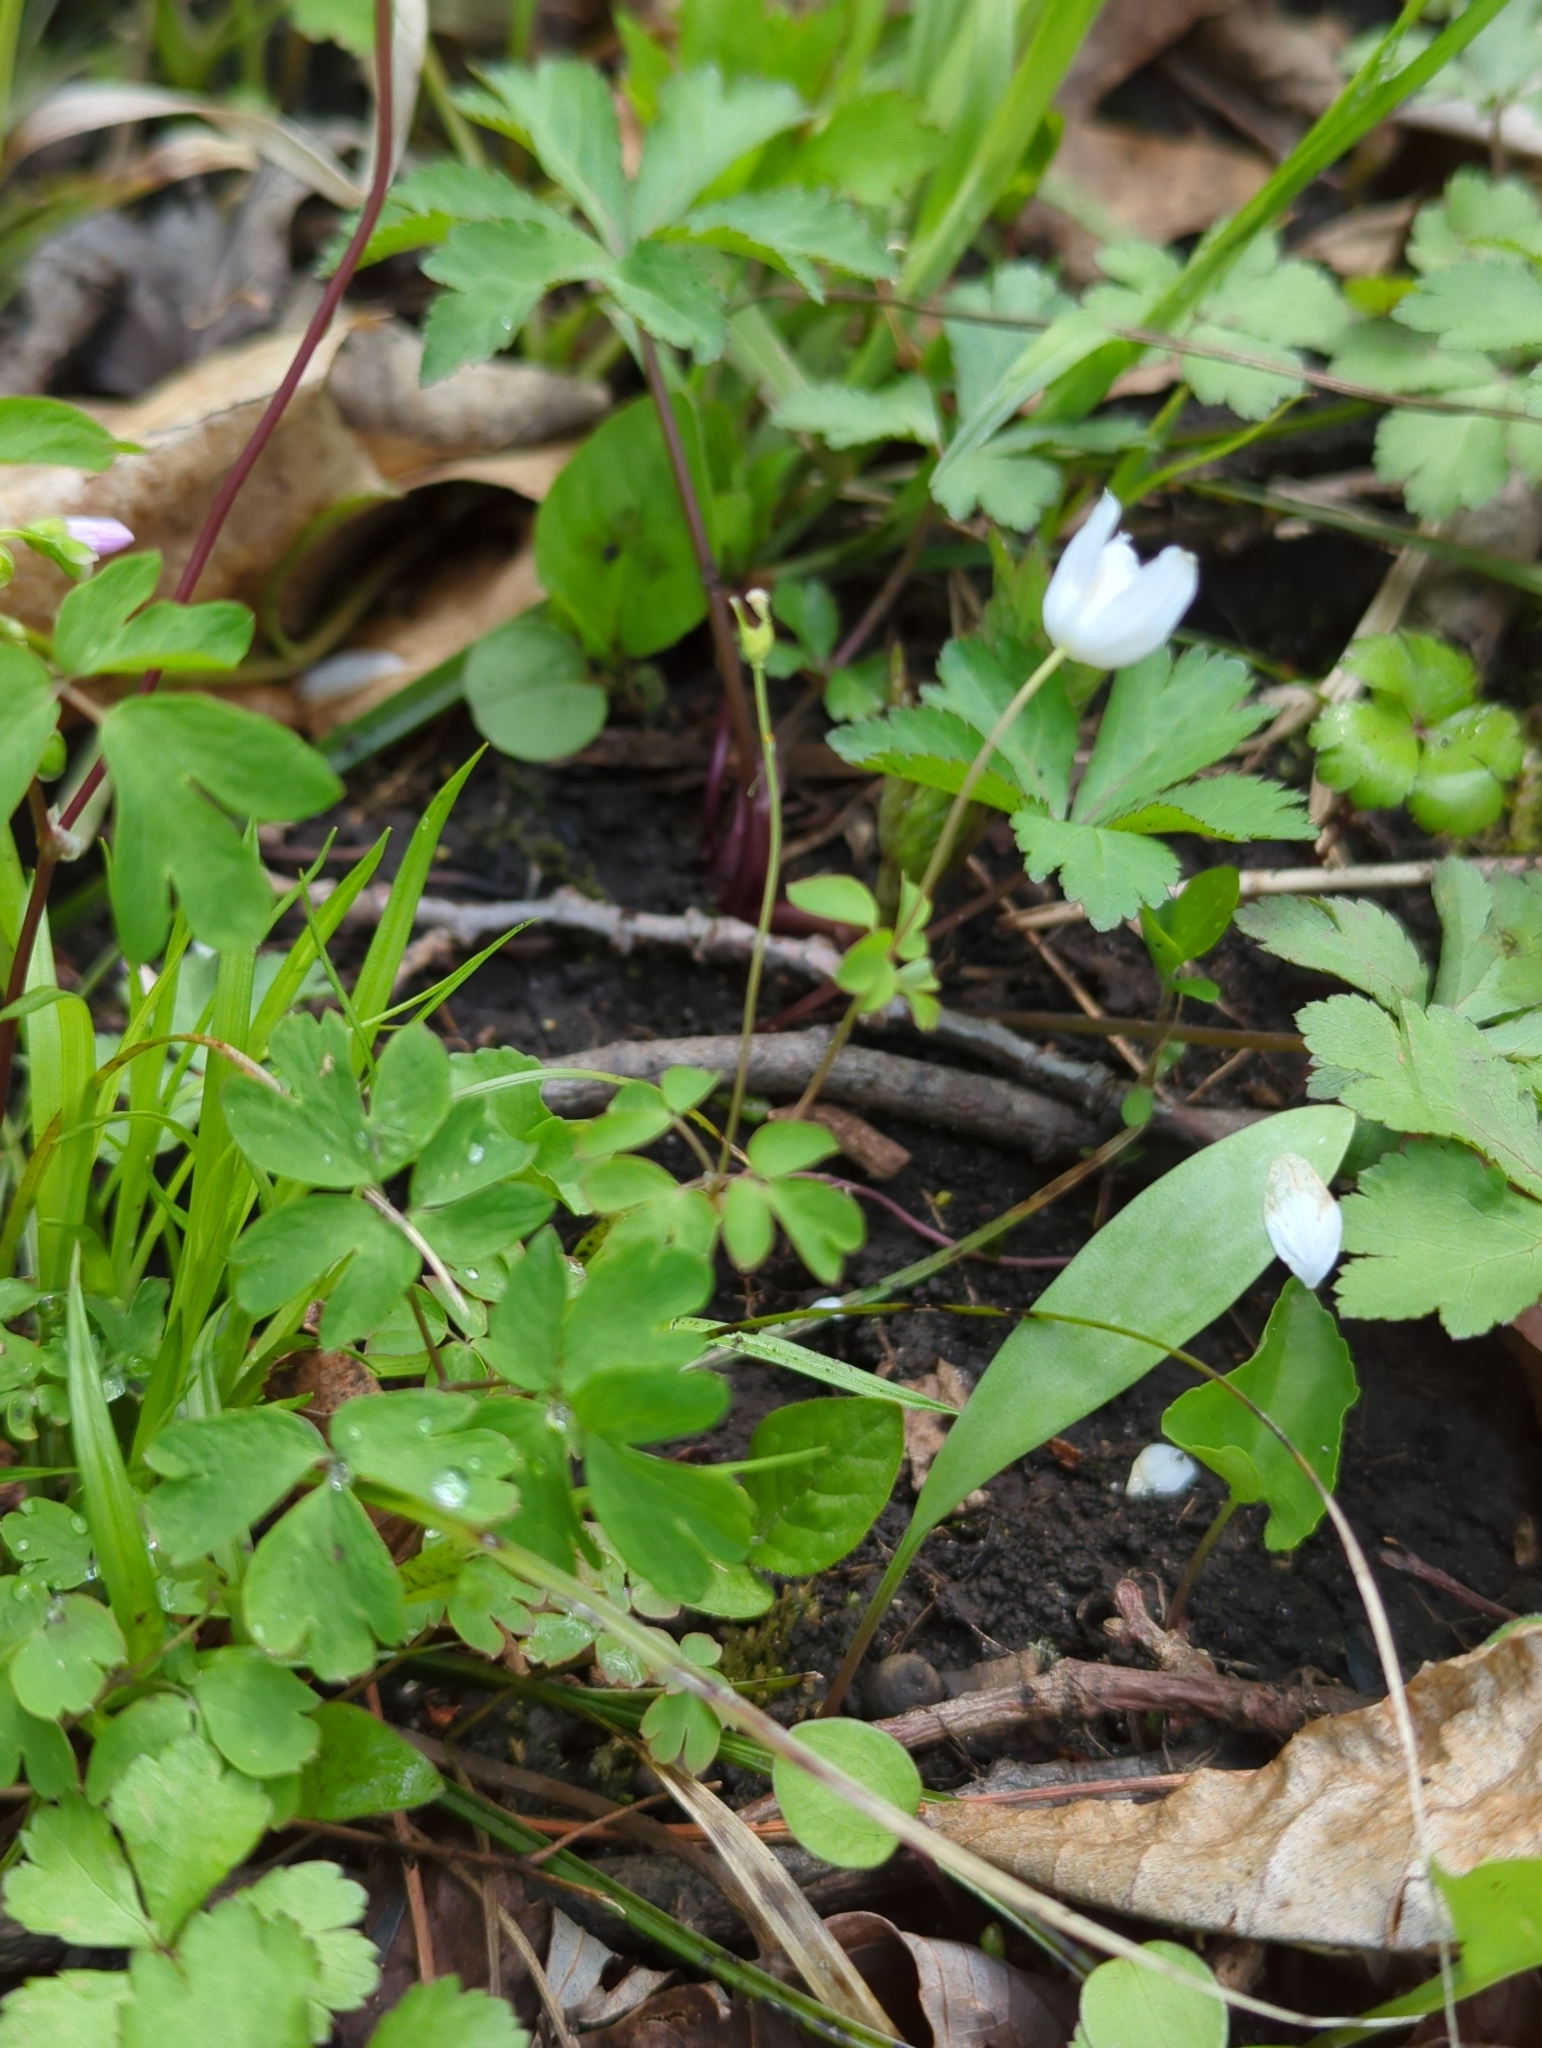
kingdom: Plantae
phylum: Tracheophyta
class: Magnoliopsida
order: Ranunculales
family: Ranunculaceae
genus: Enemion
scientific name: Enemion biternatum
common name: Eastern false rue-anemone
